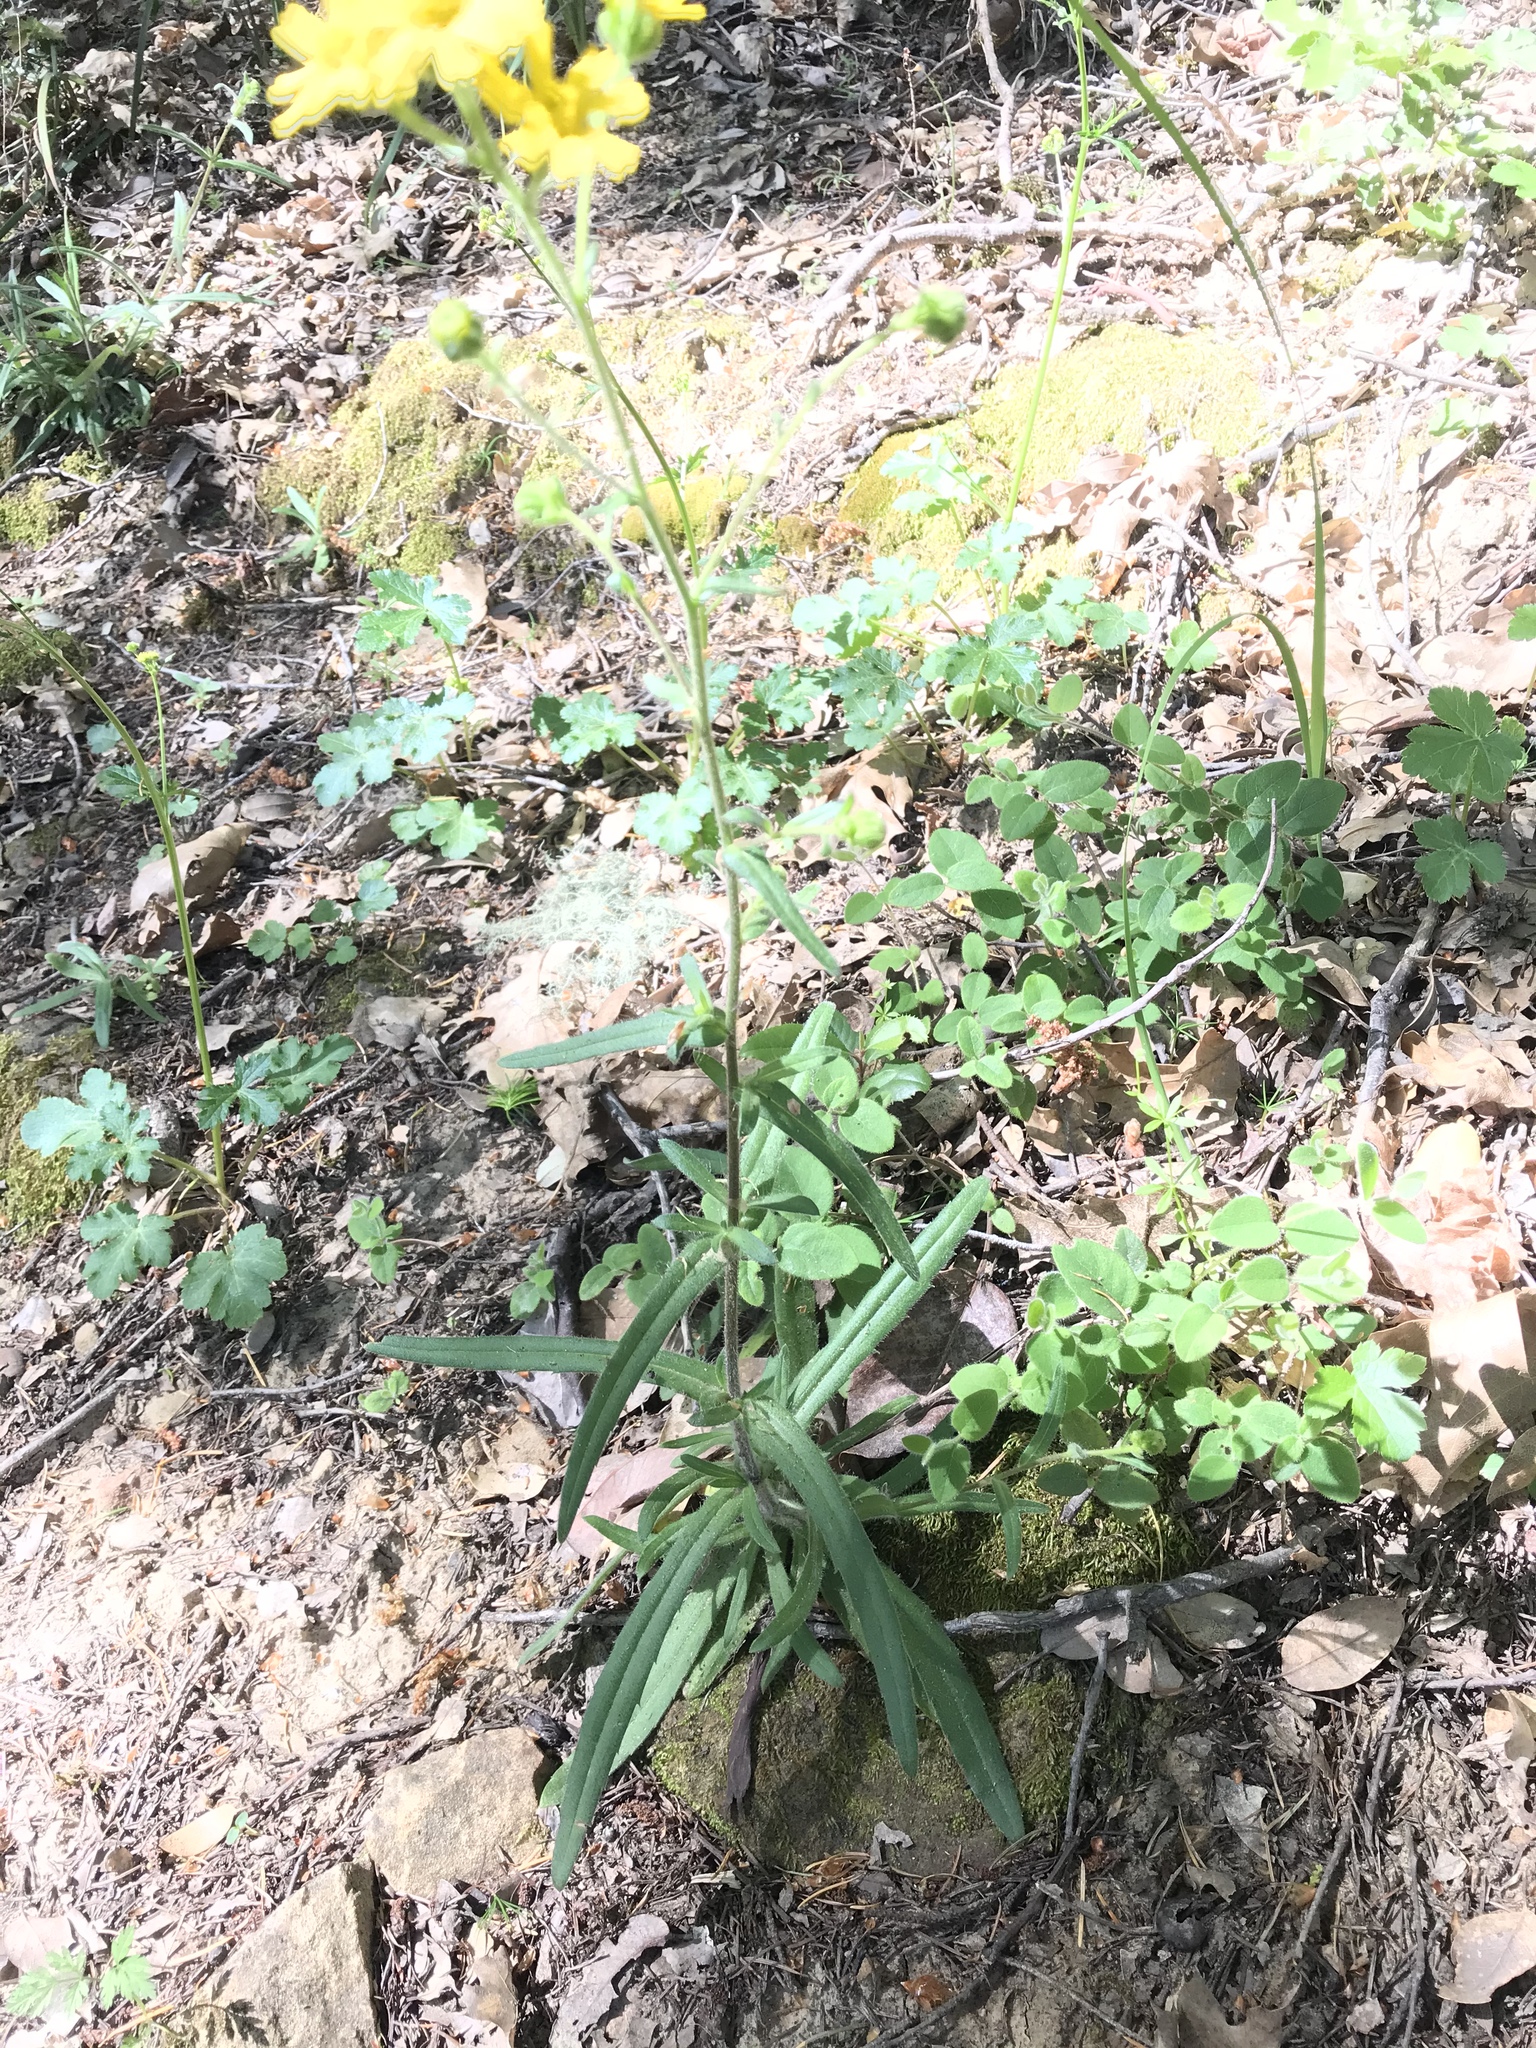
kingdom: Plantae
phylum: Tracheophyta
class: Magnoliopsida
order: Asterales
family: Asteraceae
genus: Anisocarpus
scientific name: Anisocarpus madioides
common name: Woodland madia
